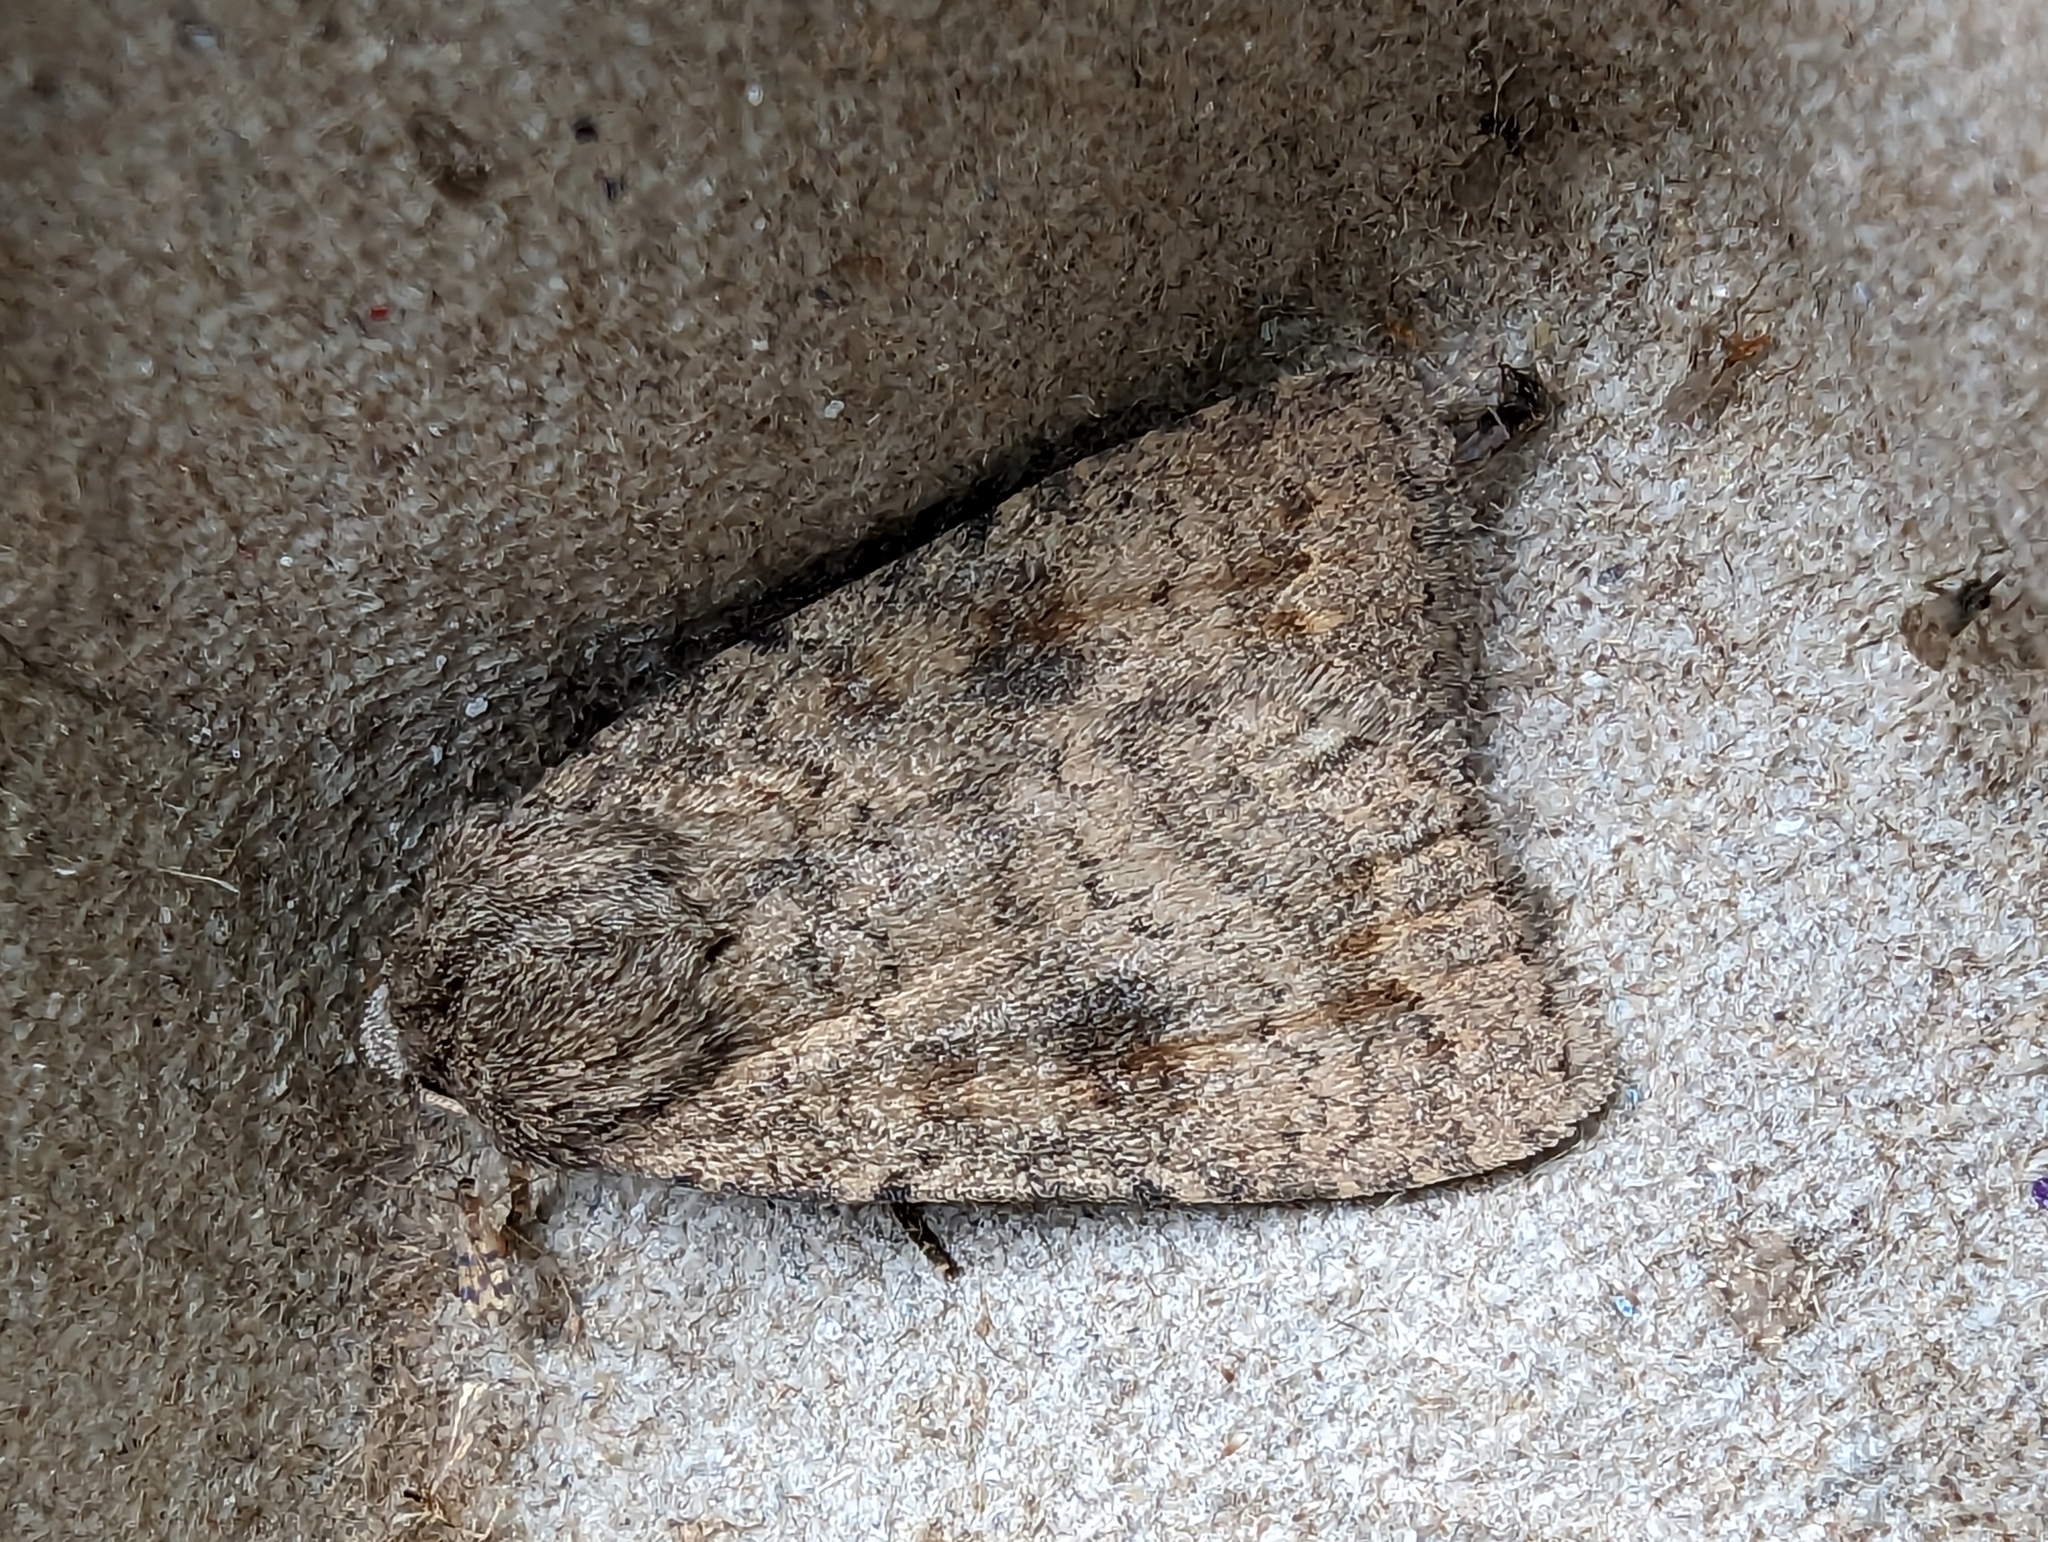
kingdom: Animalia
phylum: Arthropoda
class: Insecta
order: Lepidoptera
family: Noctuidae
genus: Caradrina
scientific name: Caradrina morpheus
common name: Mottled rustic
